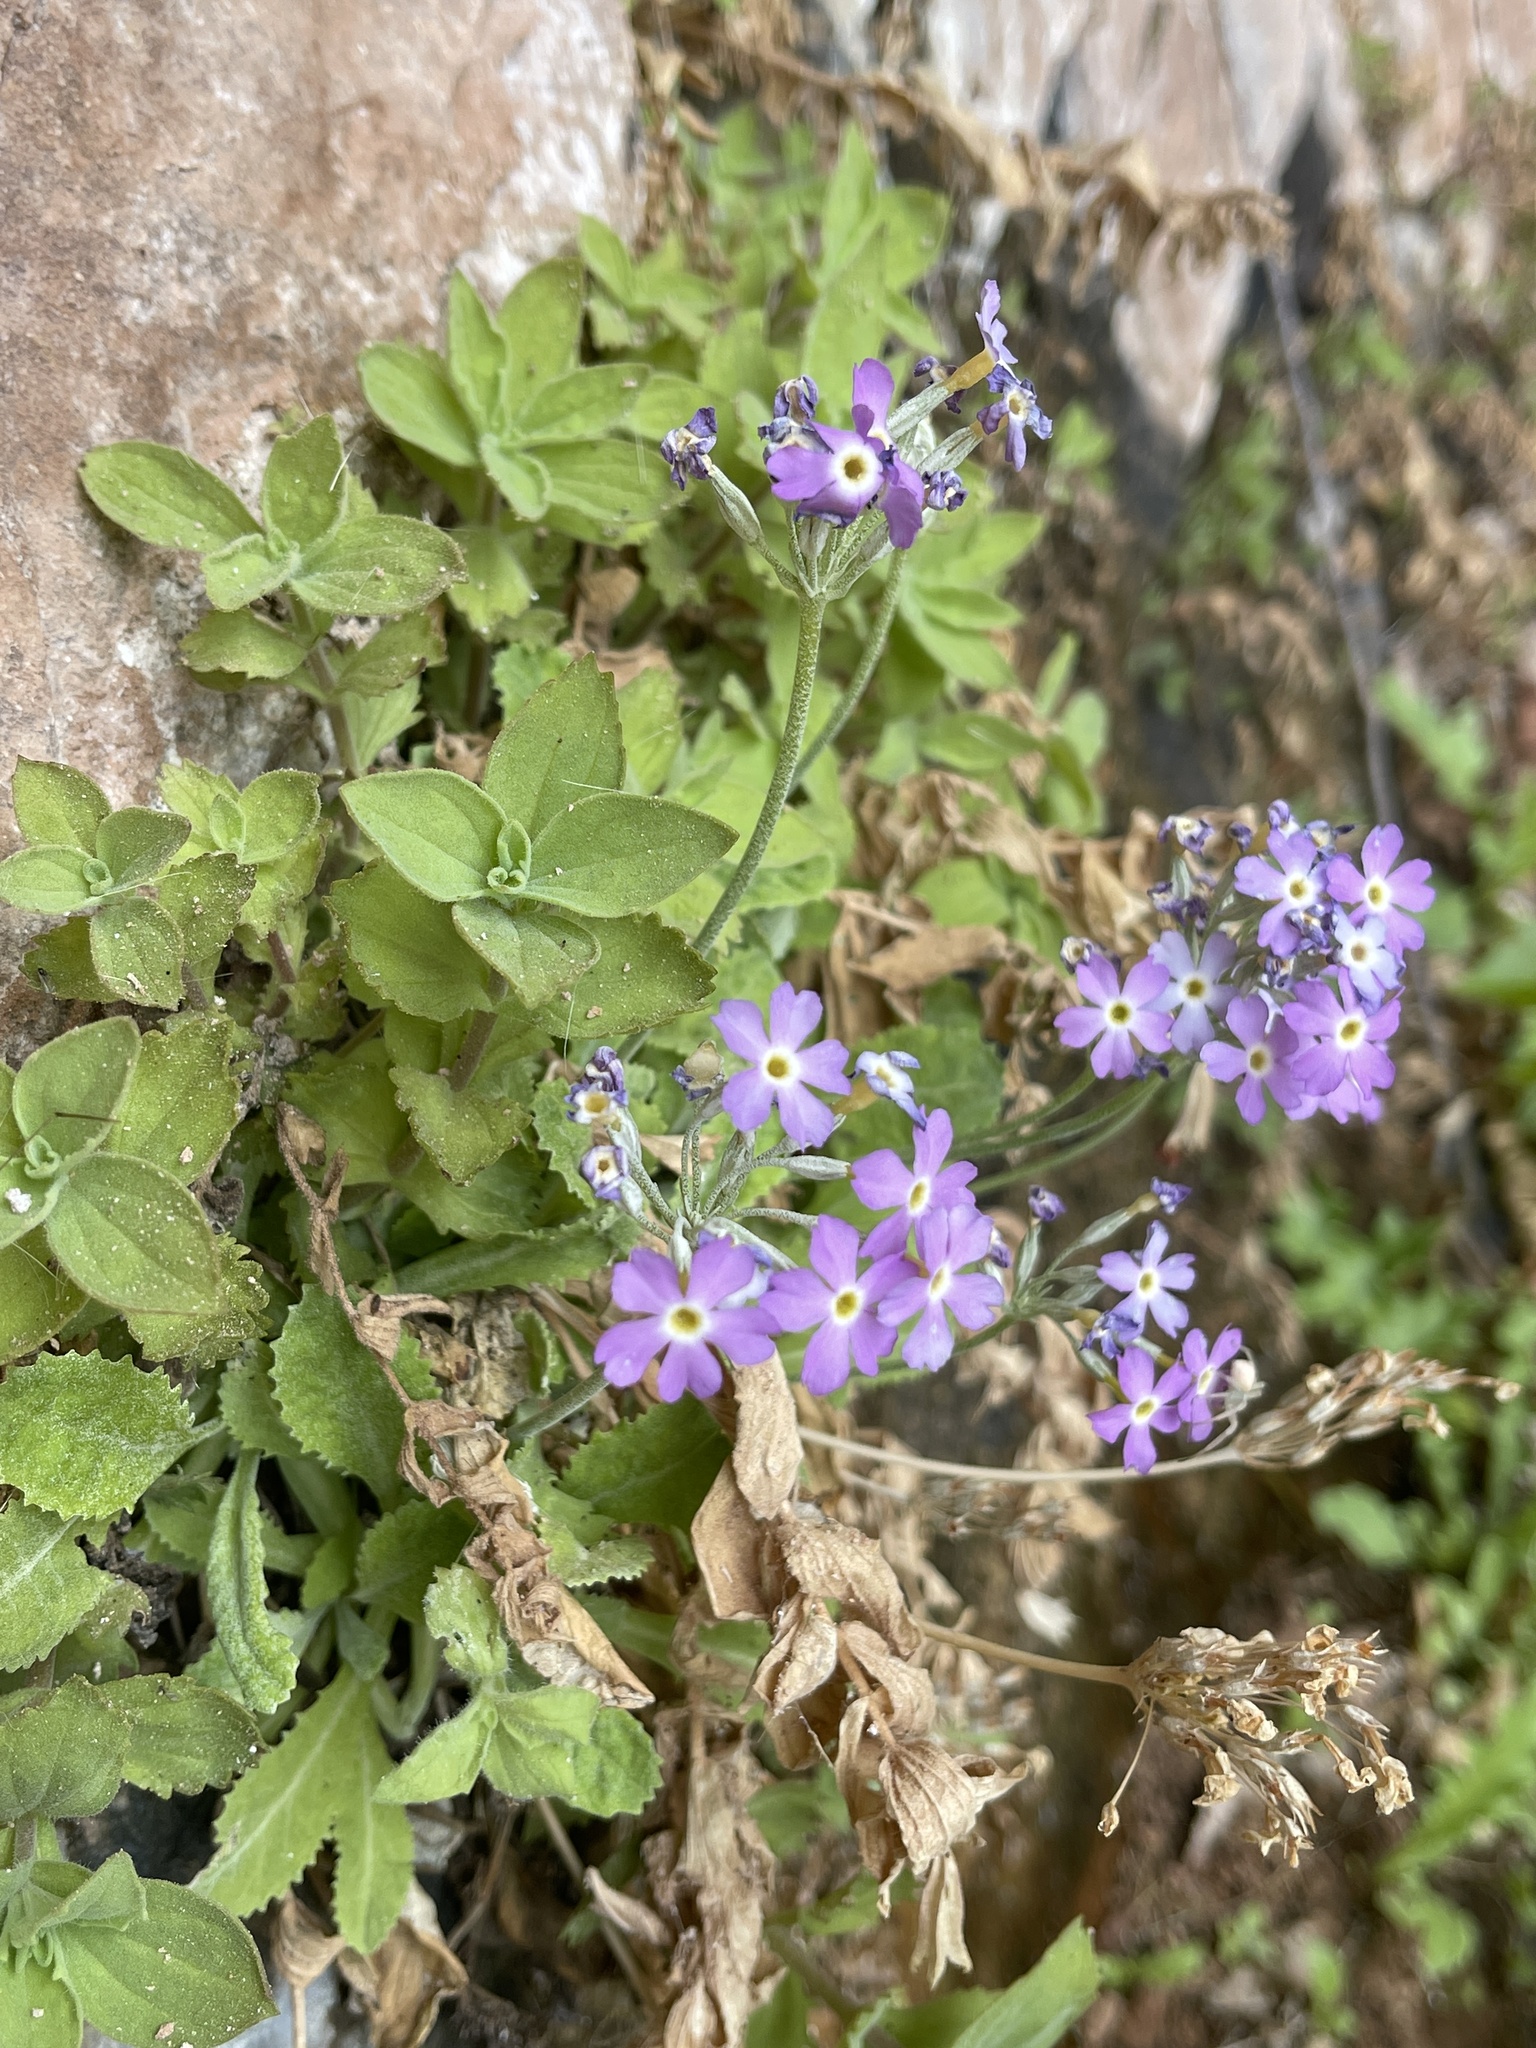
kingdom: Plantae
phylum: Tracheophyta
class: Magnoliopsida
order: Ericales
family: Primulaceae
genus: Primula
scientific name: Primula specuicola
